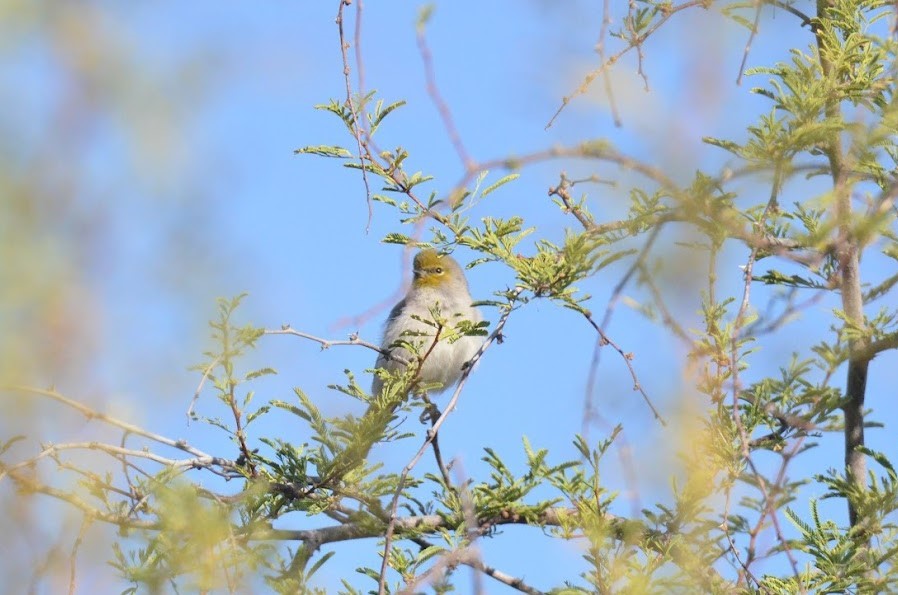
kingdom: Animalia
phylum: Chordata
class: Aves
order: Passeriformes
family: Remizidae
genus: Auriparus
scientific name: Auriparus flaviceps
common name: Verdin
